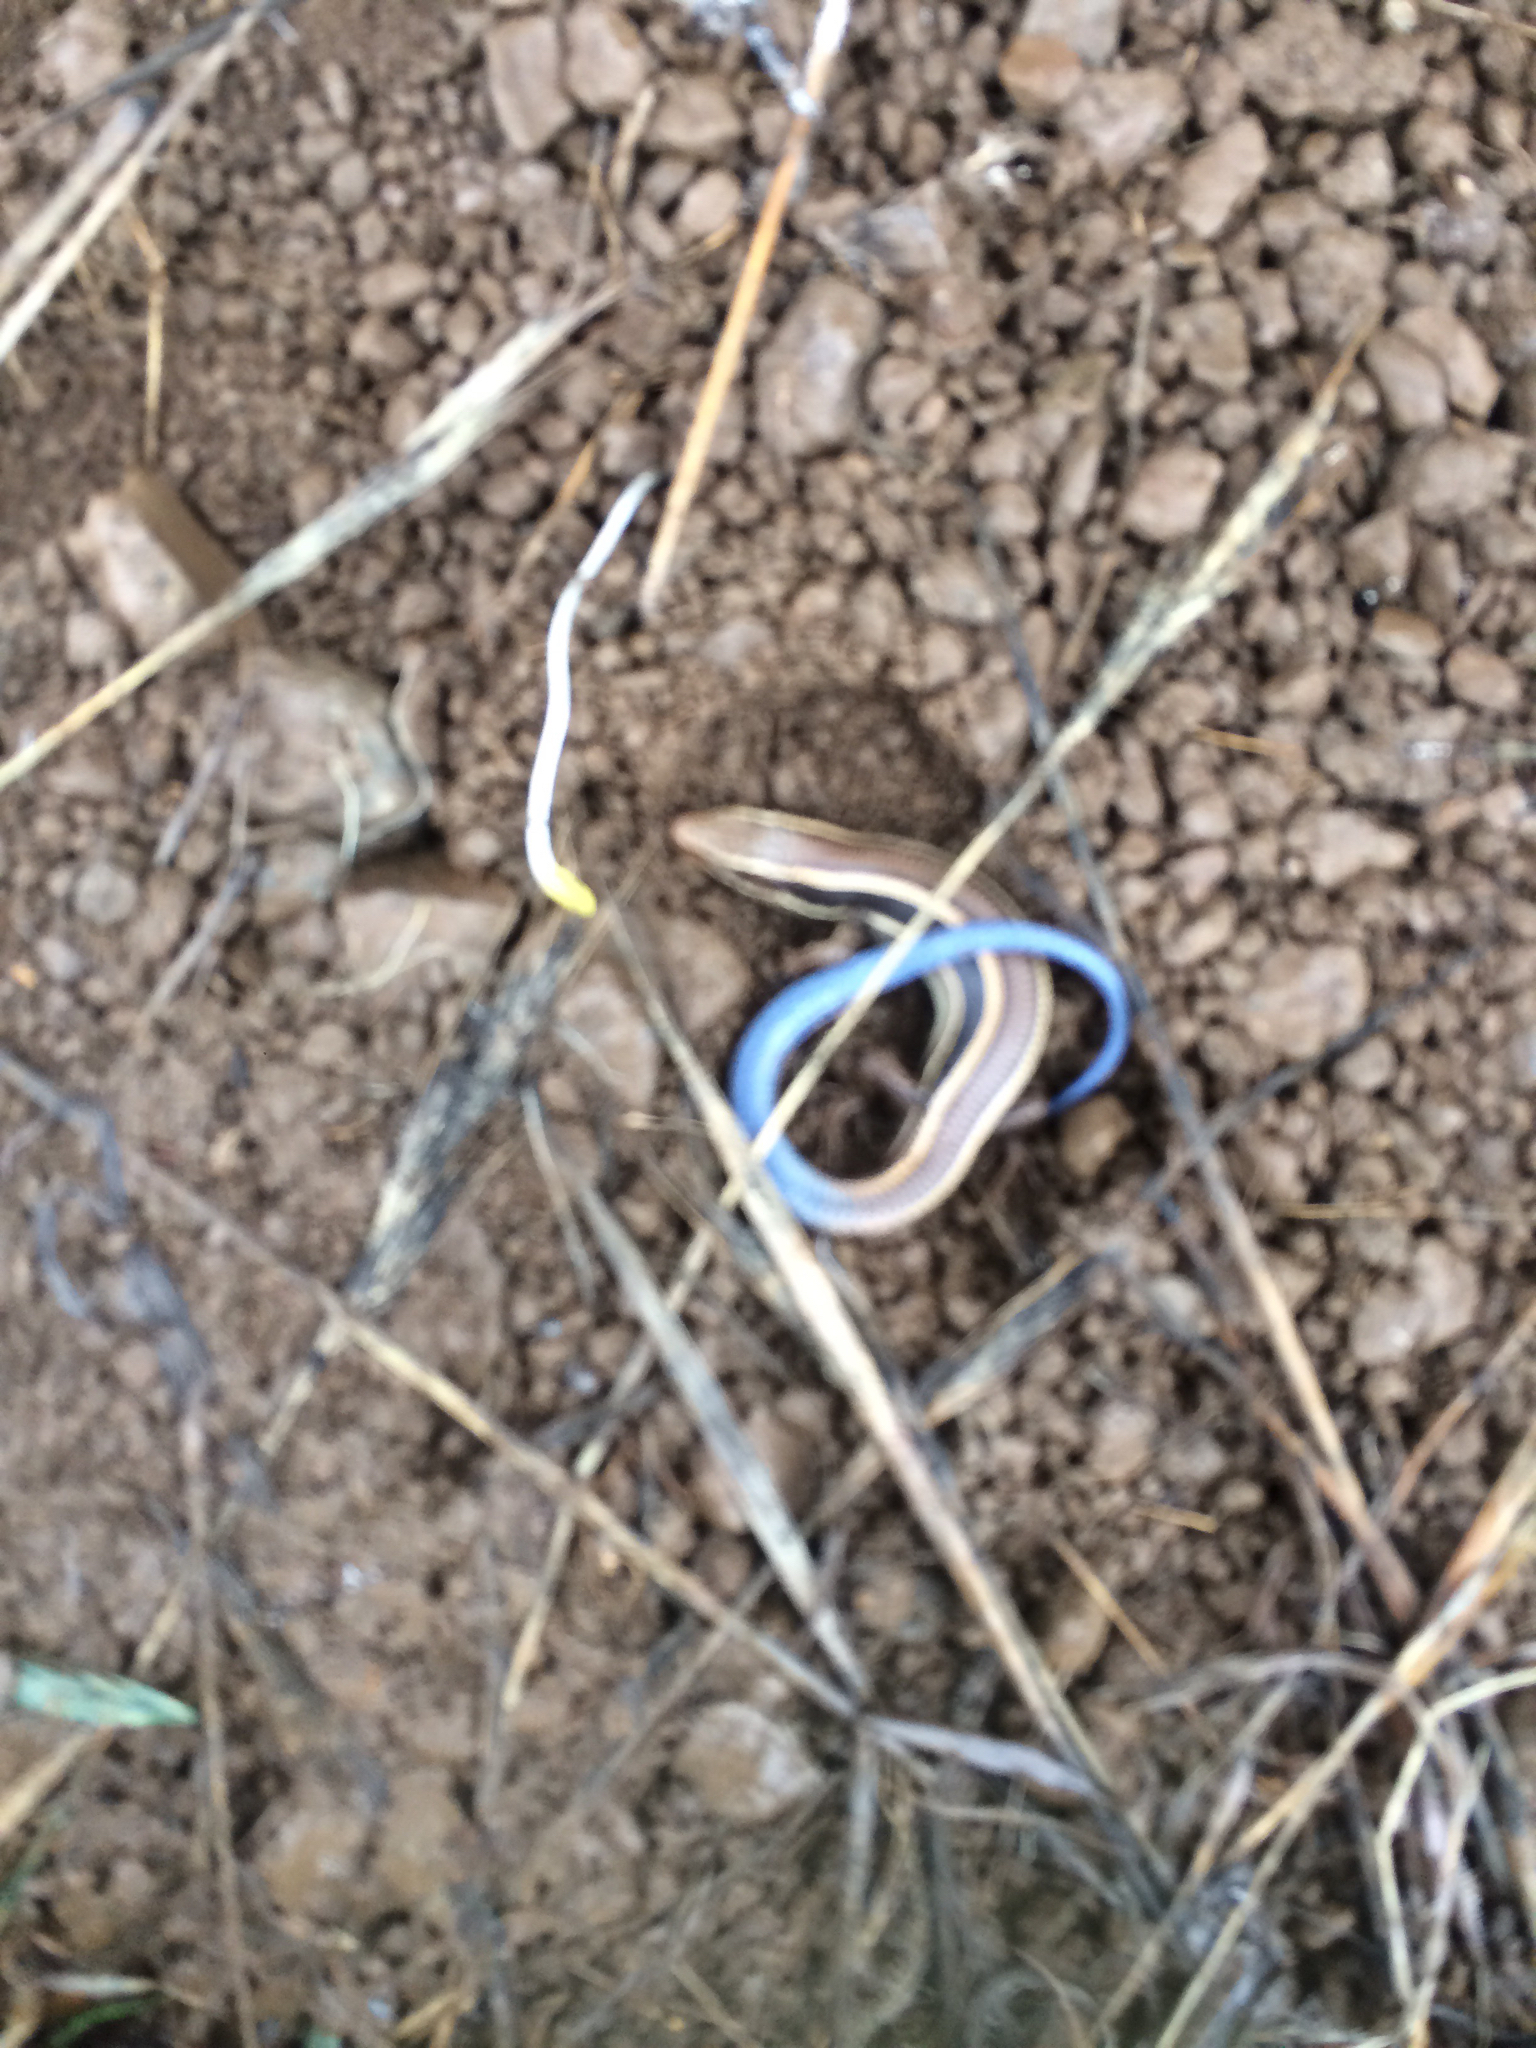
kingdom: Animalia
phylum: Chordata
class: Squamata
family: Scincidae
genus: Plestiodon
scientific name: Plestiodon skiltonianus
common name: Coronado island skink [interparietalis]
